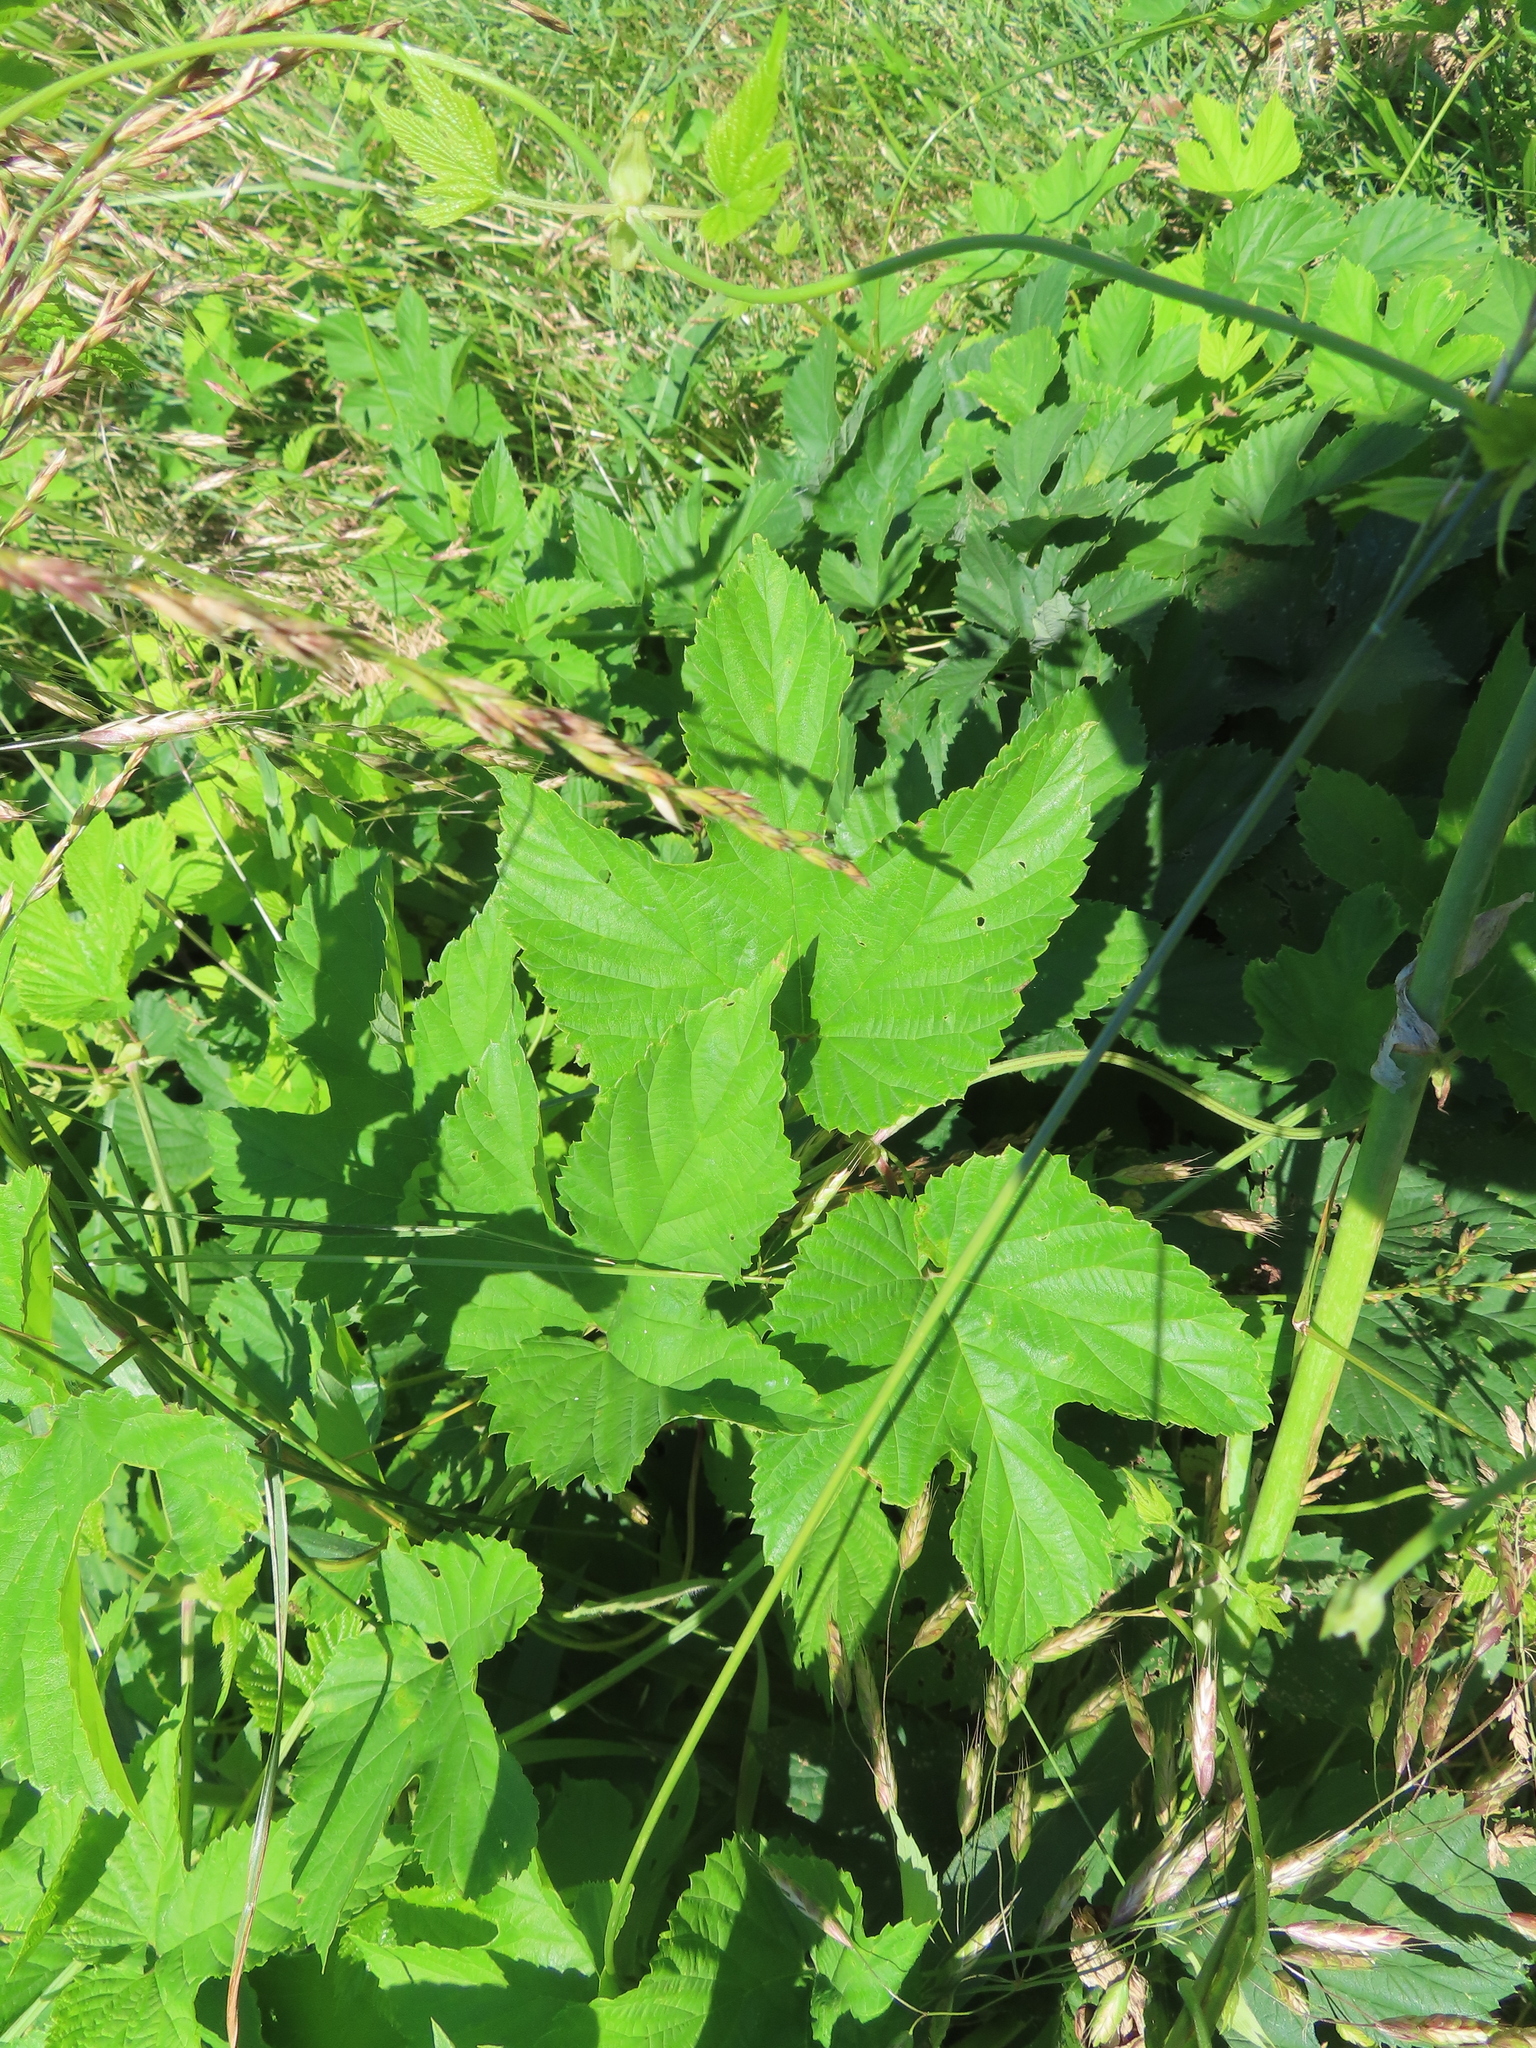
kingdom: Plantae
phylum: Tracheophyta
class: Magnoliopsida
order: Rosales
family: Cannabaceae
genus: Humulus
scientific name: Humulus lupulus
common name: Hop
